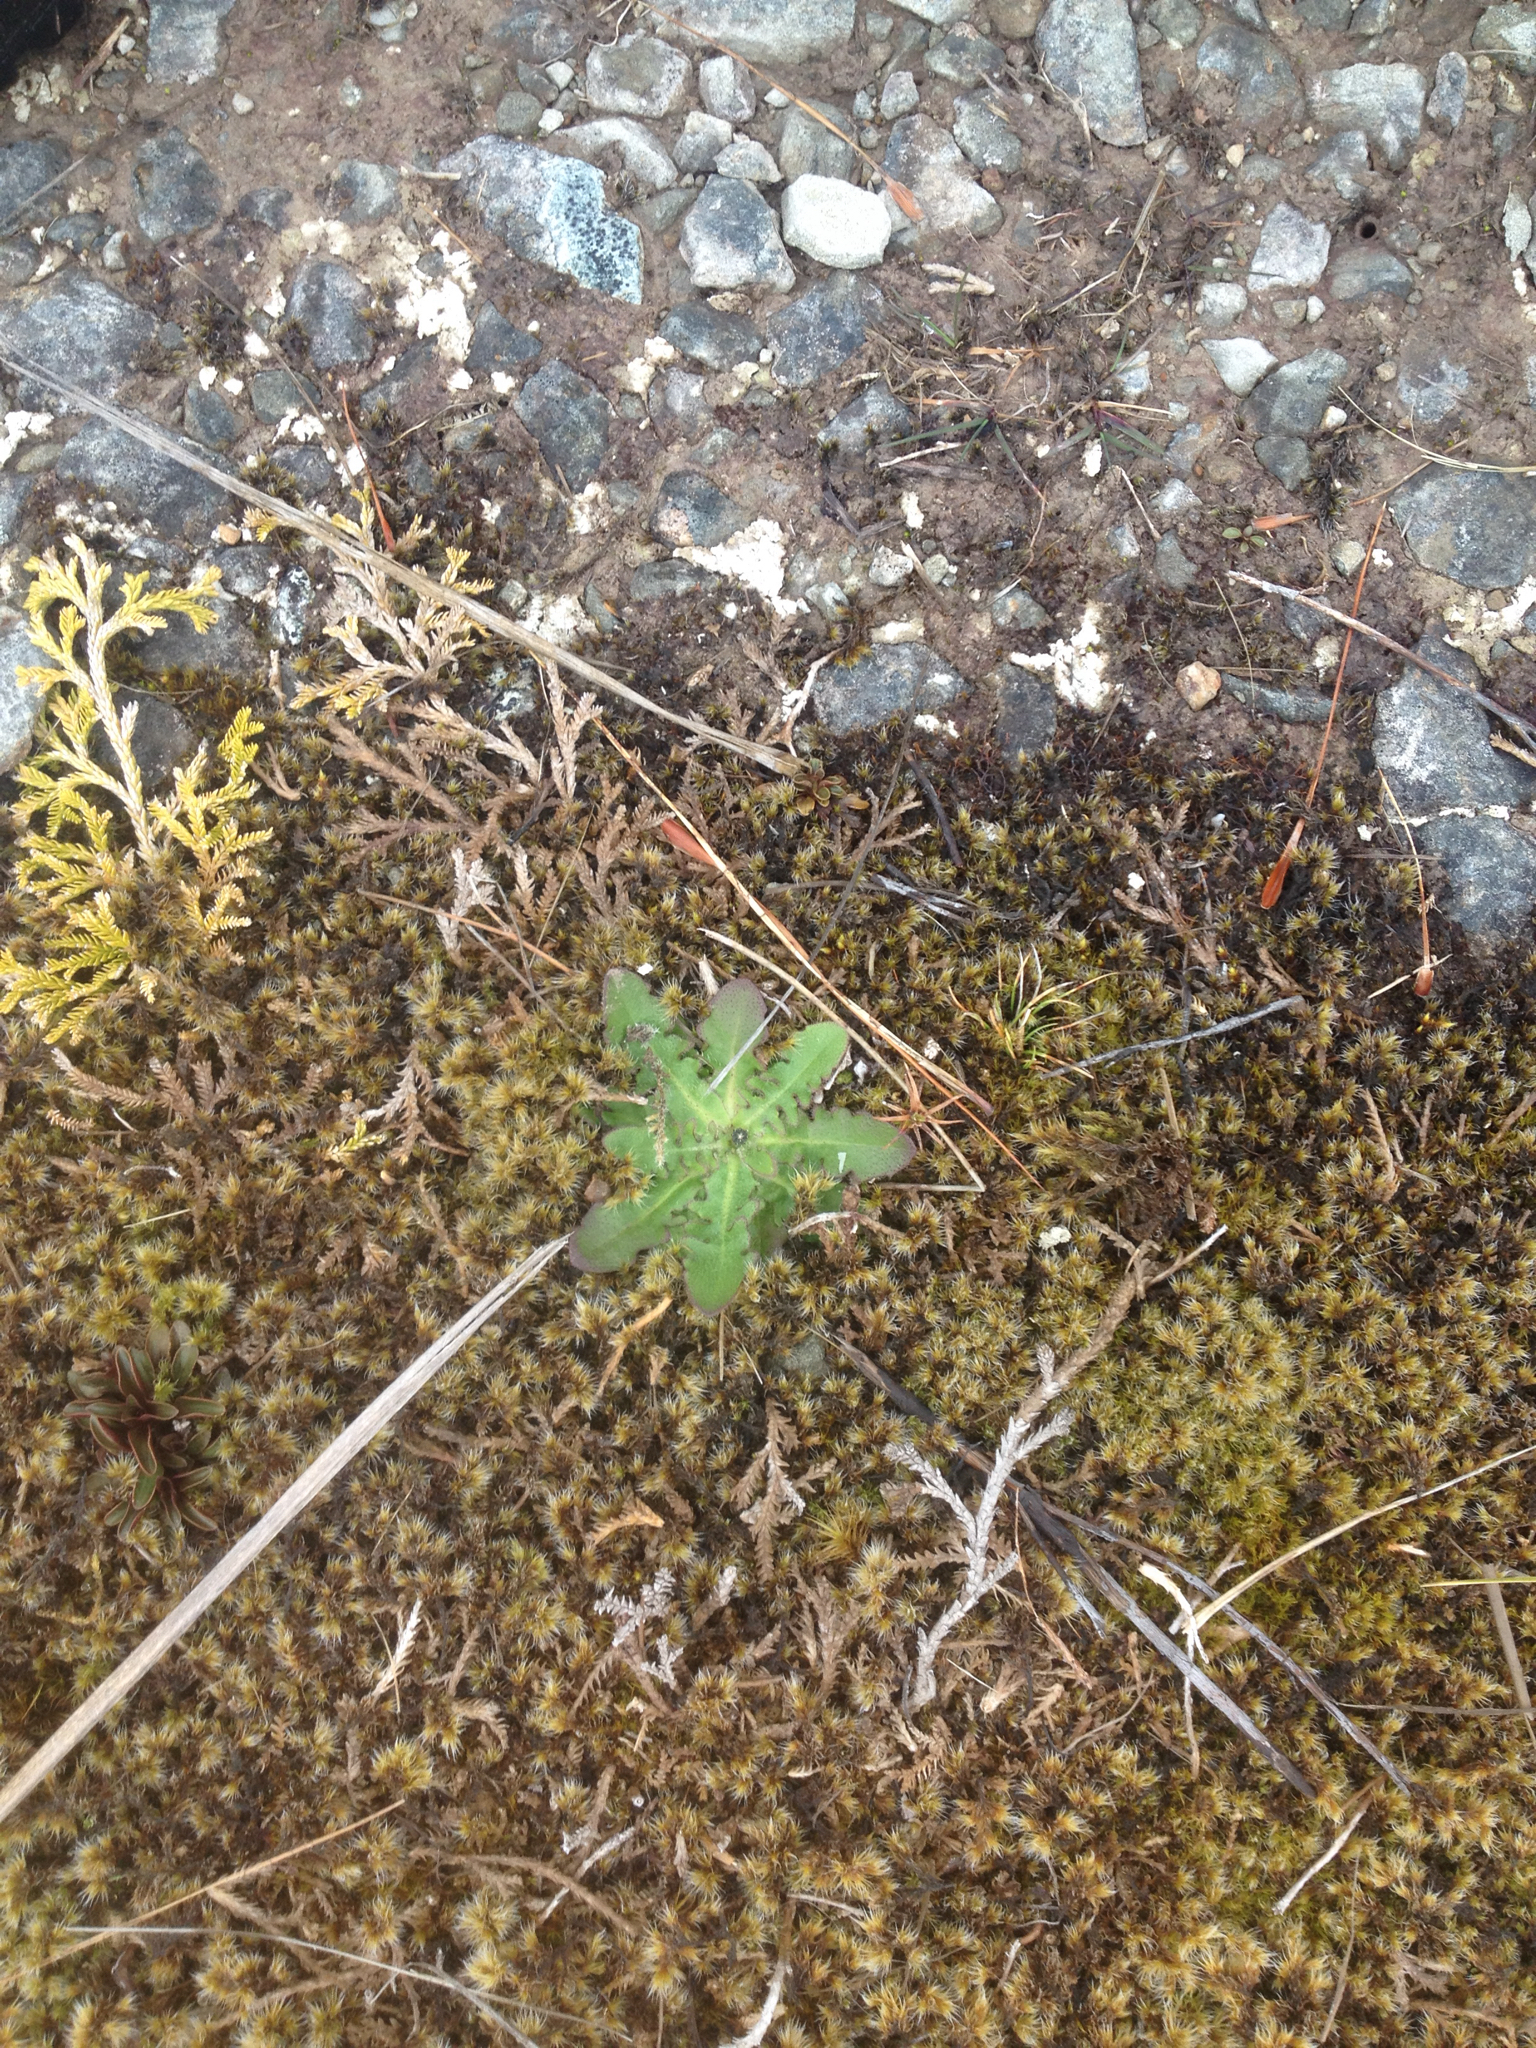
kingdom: Plantae
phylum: Tracheophyta
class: Magnoliopsida
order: Asterales
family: Asteraceae
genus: Hypochaeris
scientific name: Hypochaeris radicata
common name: Flatweed
